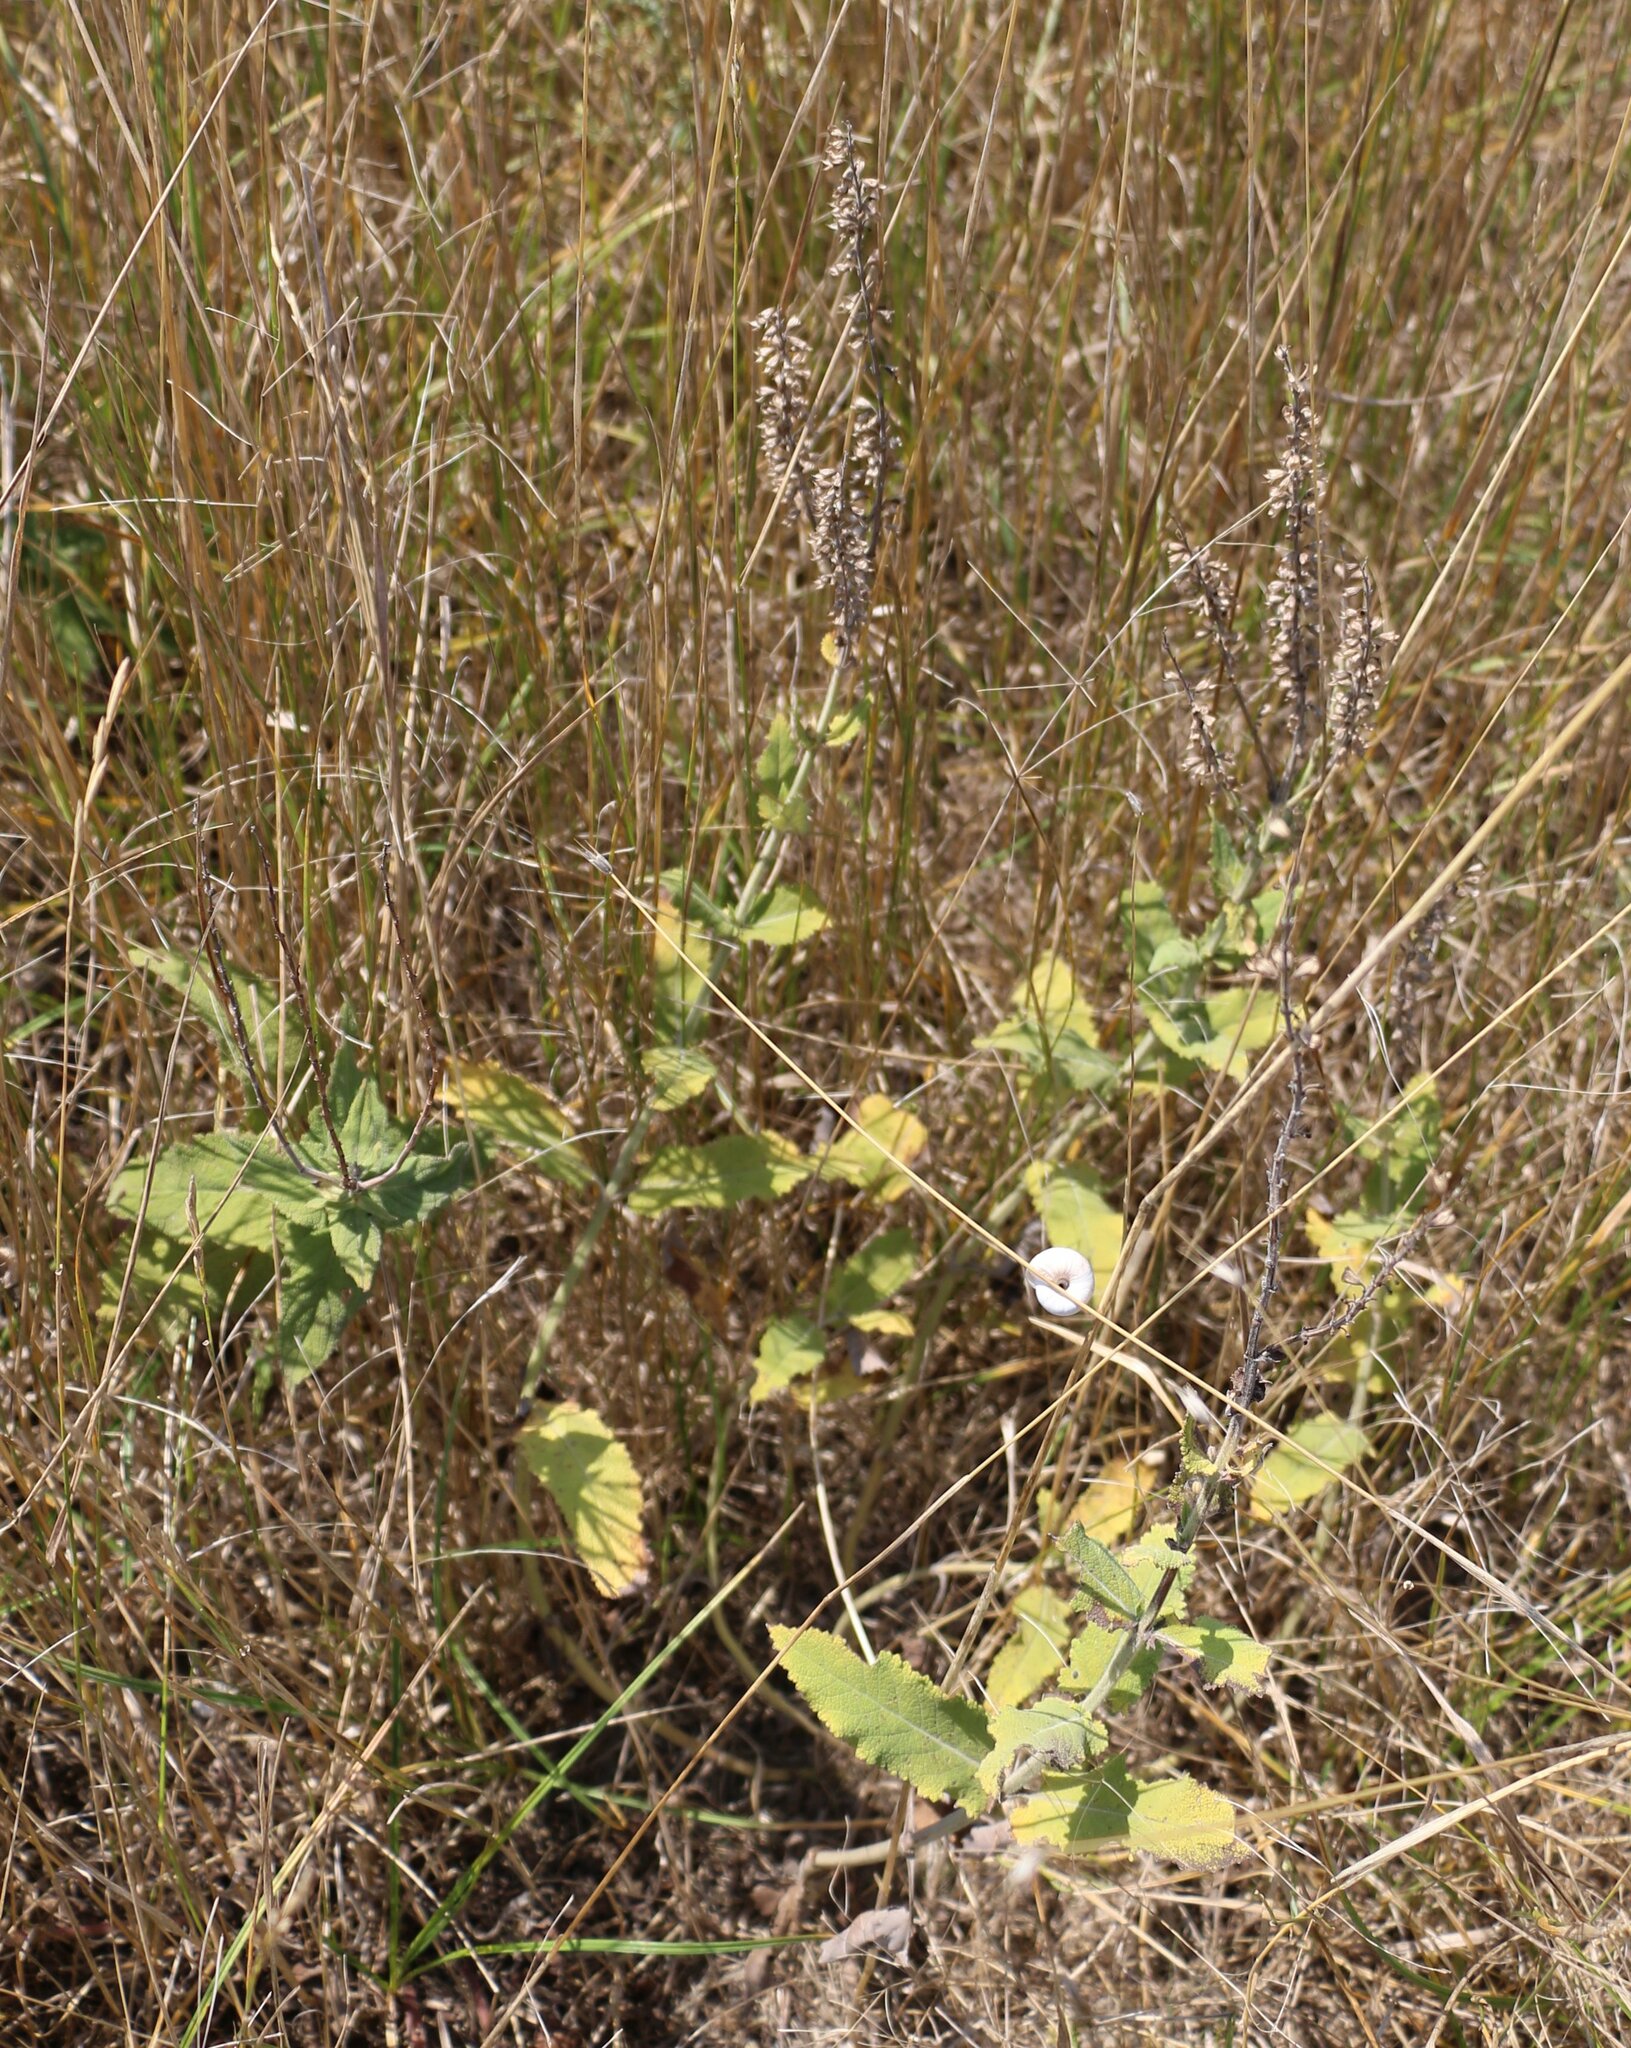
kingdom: Plantae
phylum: Tracheophyta
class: Magnoliopsida
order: Lamiales
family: Lamiaceae
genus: Salvia
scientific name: Salvia nemorosa
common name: Balkan clary
